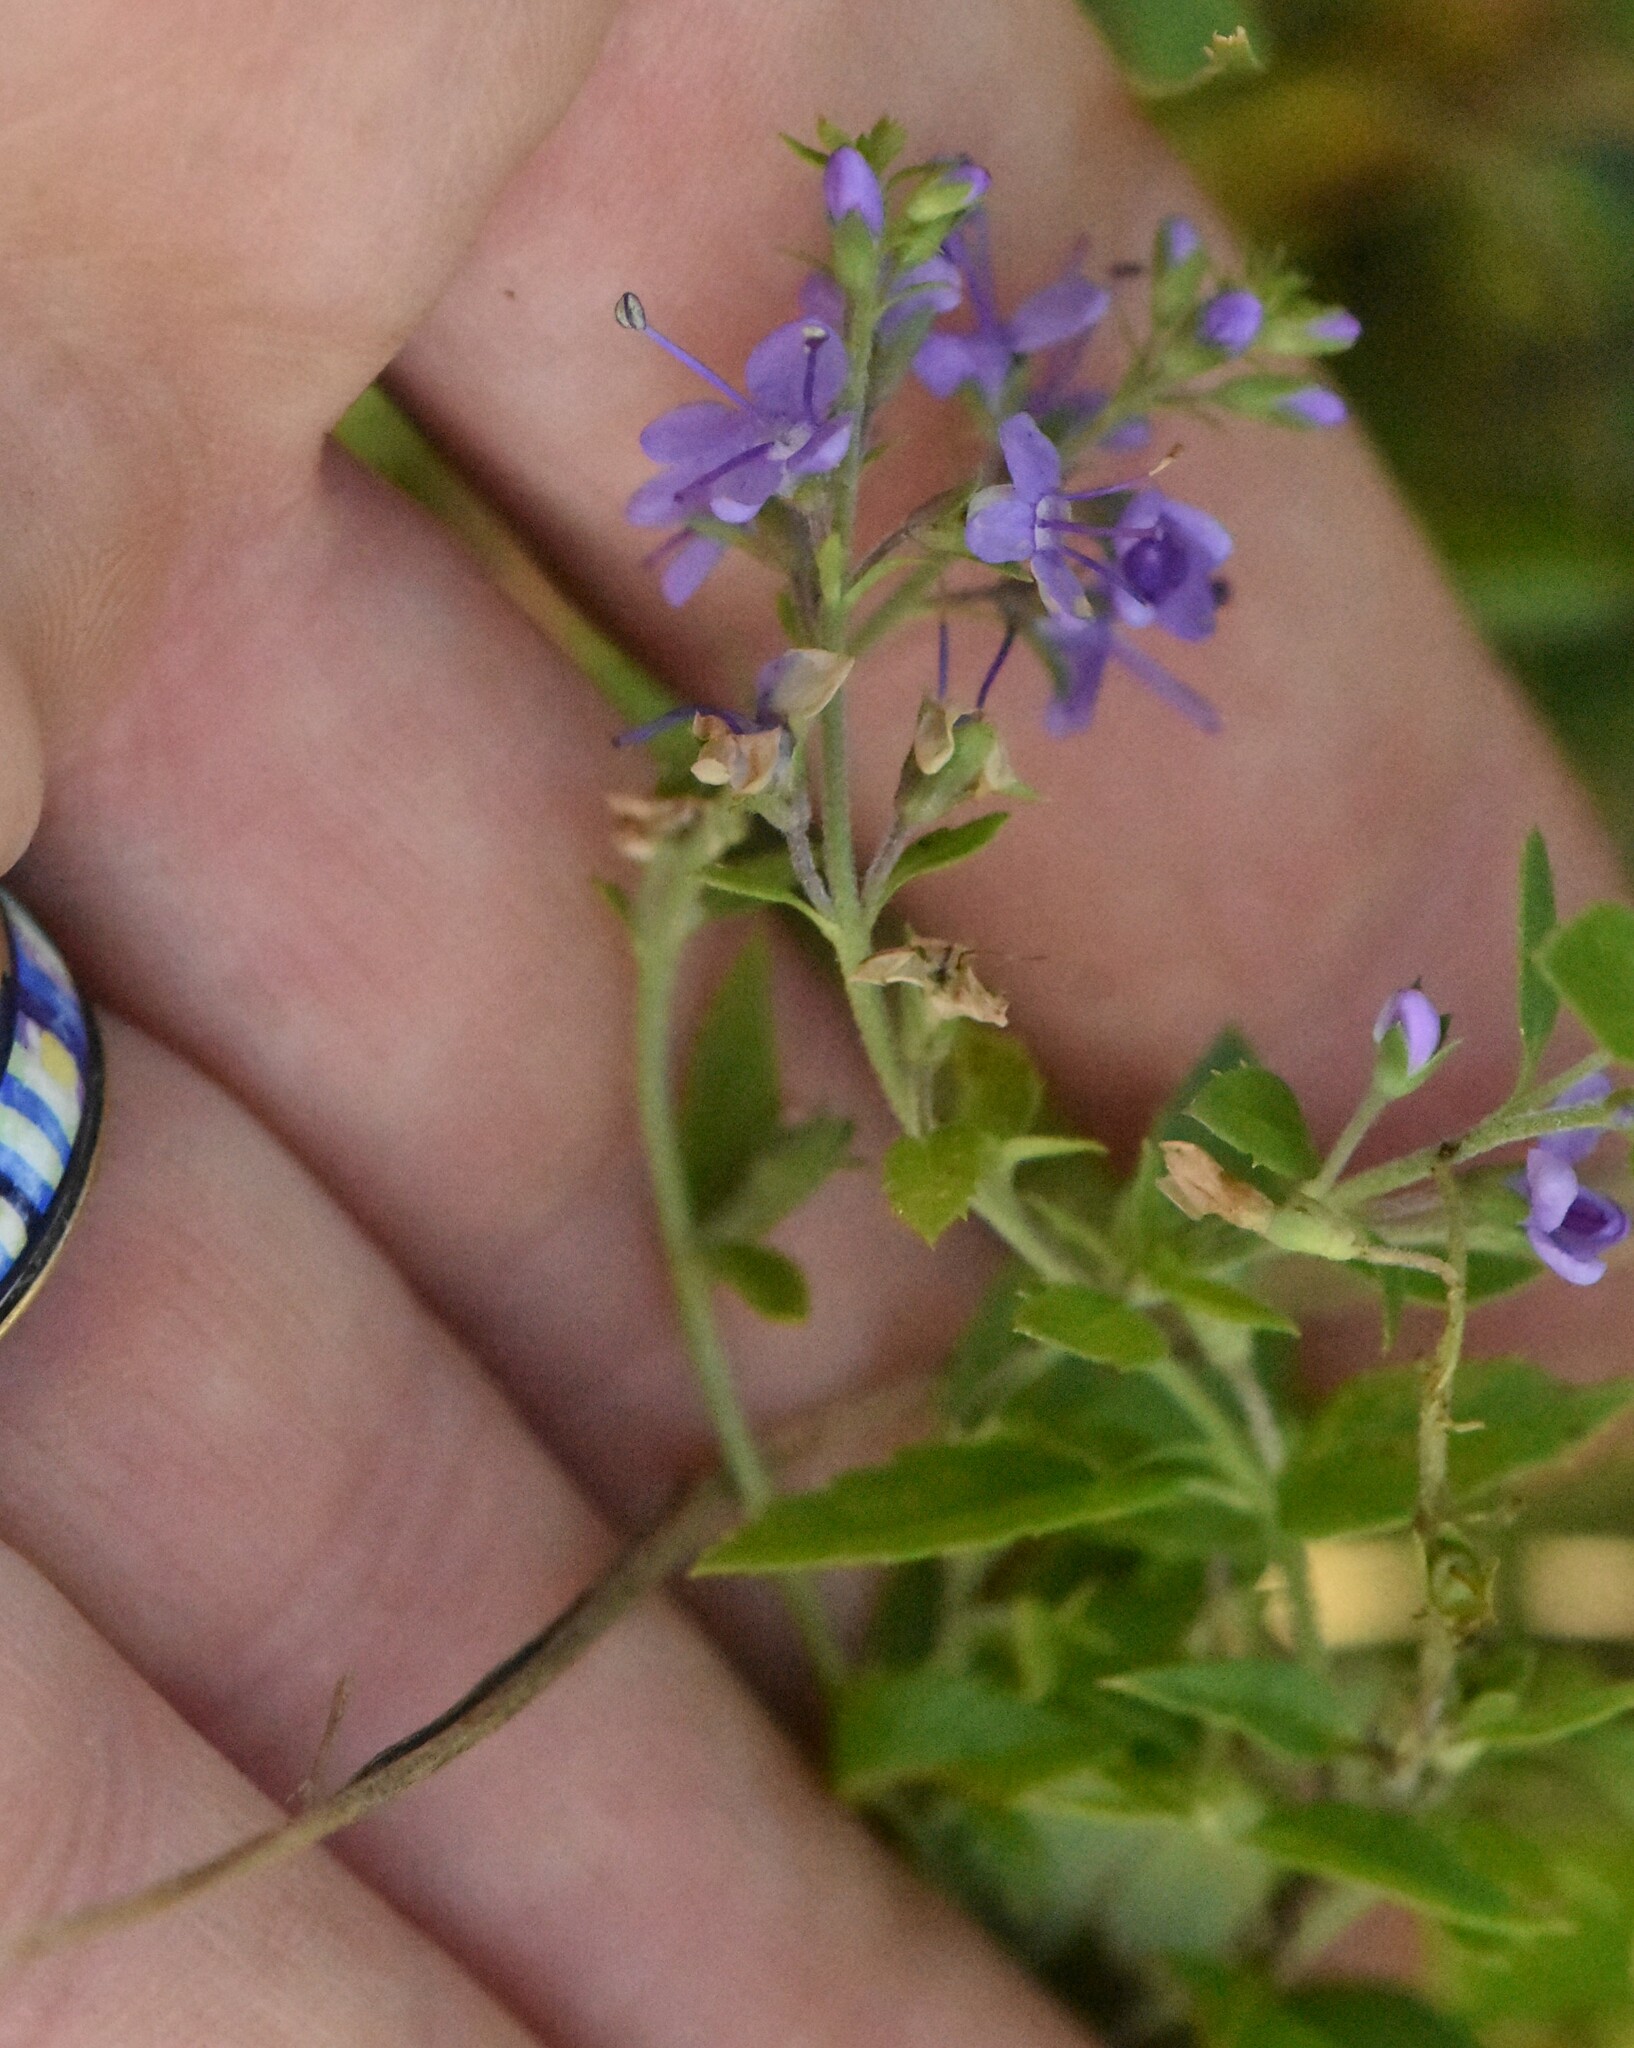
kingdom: Plantae
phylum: Tracheophyta
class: Magnoliopsida
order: Lamiales
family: Plantaginaceae
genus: Veronica
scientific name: Veronica officinalis
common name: Common speedwell
